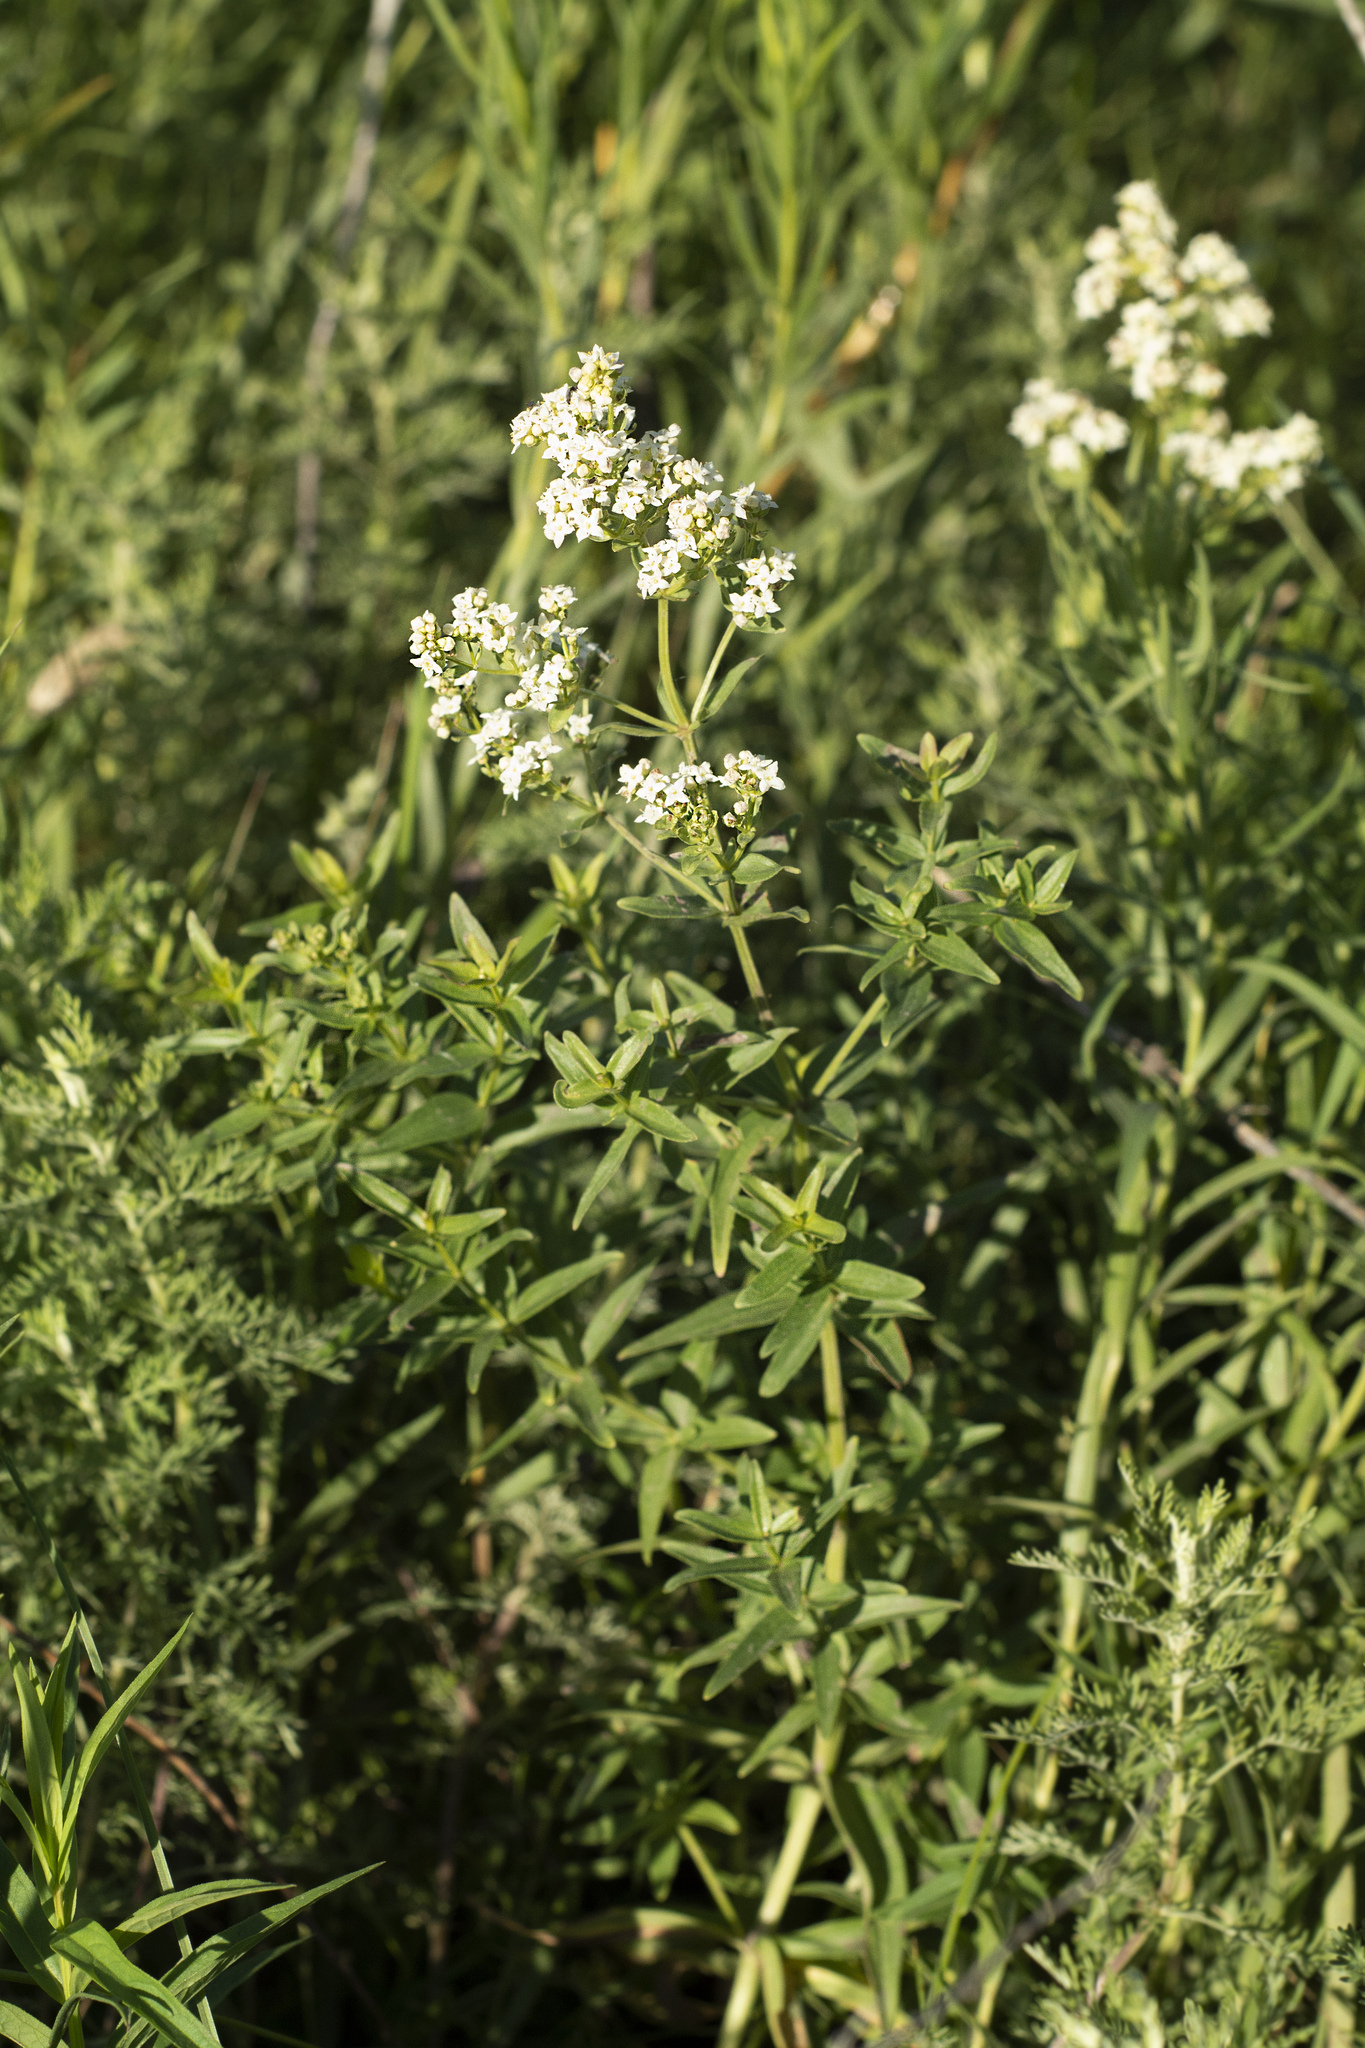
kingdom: Plantae
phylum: Tracheophyta
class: Magnoliopsida
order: Gentianales
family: Rubiaceae
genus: Galium
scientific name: Galium boreale
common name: Northern bedstraw
